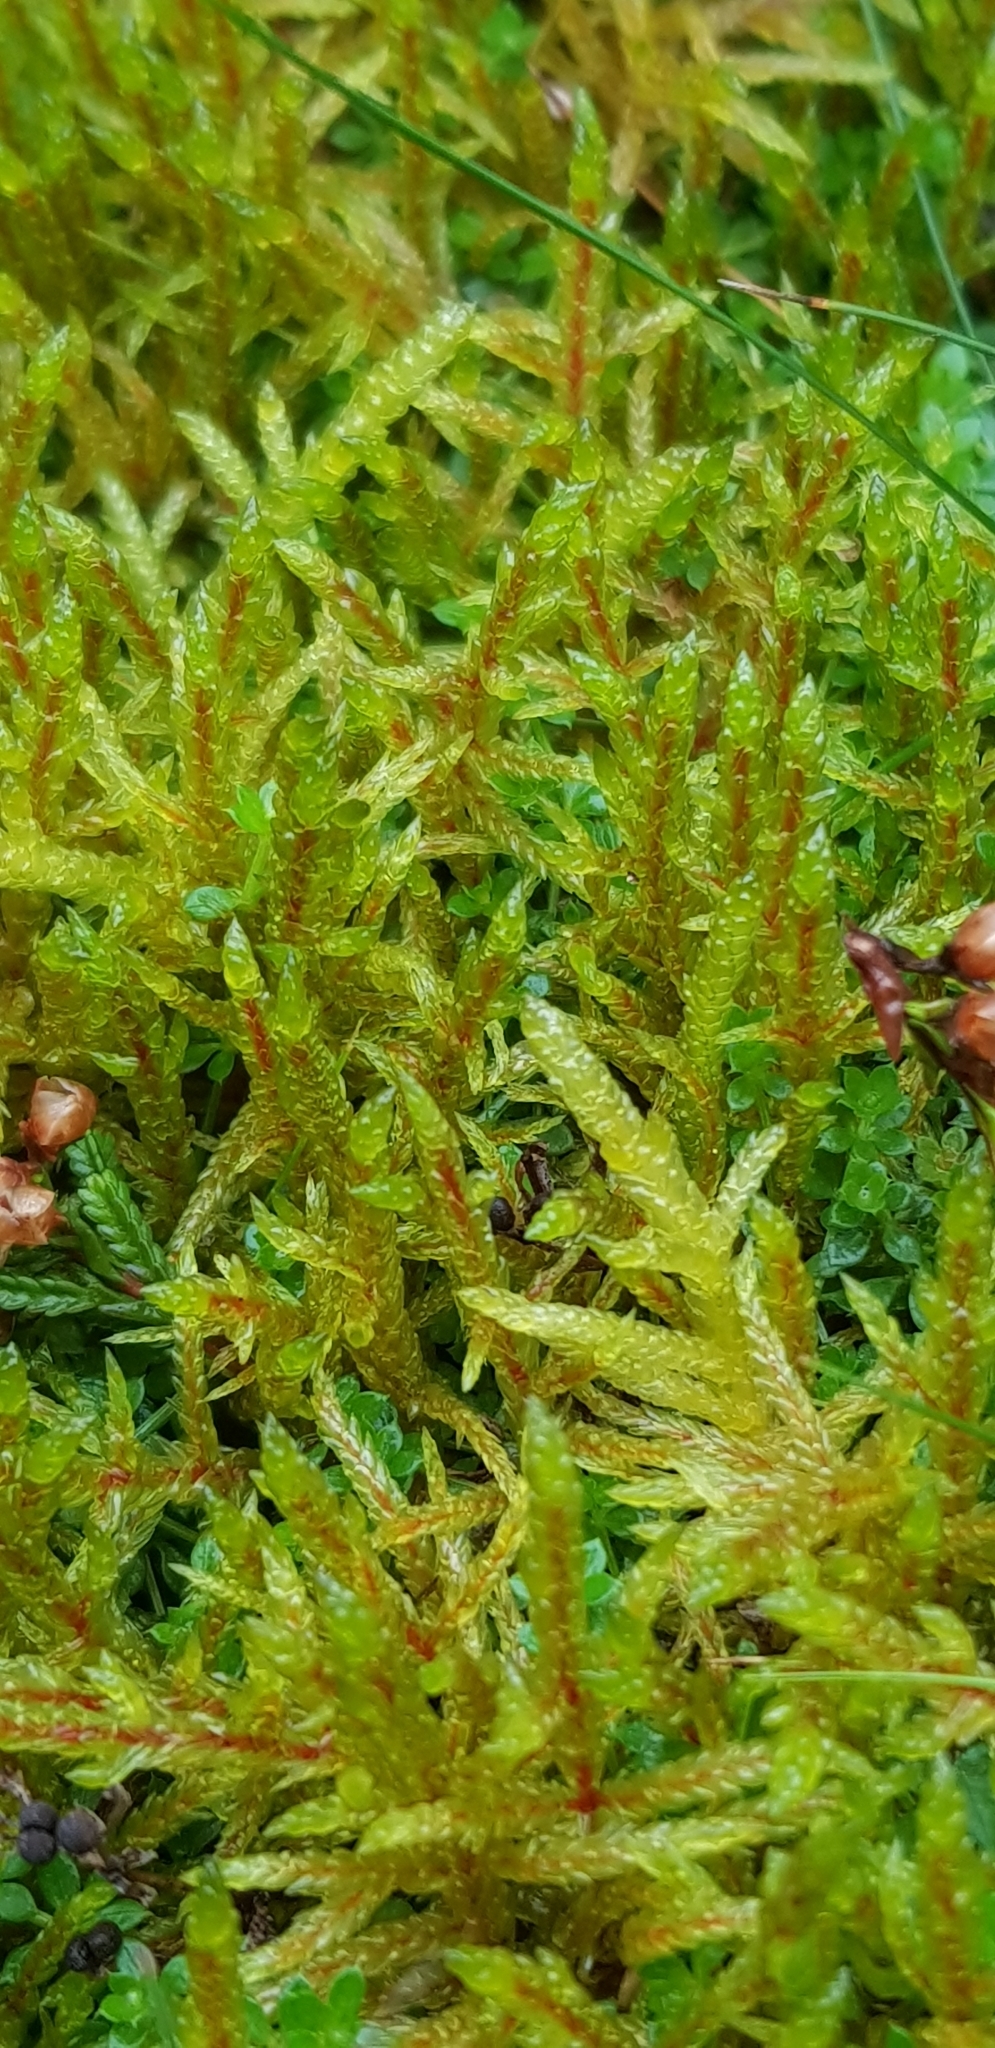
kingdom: Plantae
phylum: Bryophyta
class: Bryopsida
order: Hypnales
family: Hylocomiaceae
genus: Pleurozium
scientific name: Pleurozium schreberi
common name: Red-stemmed feather moss
